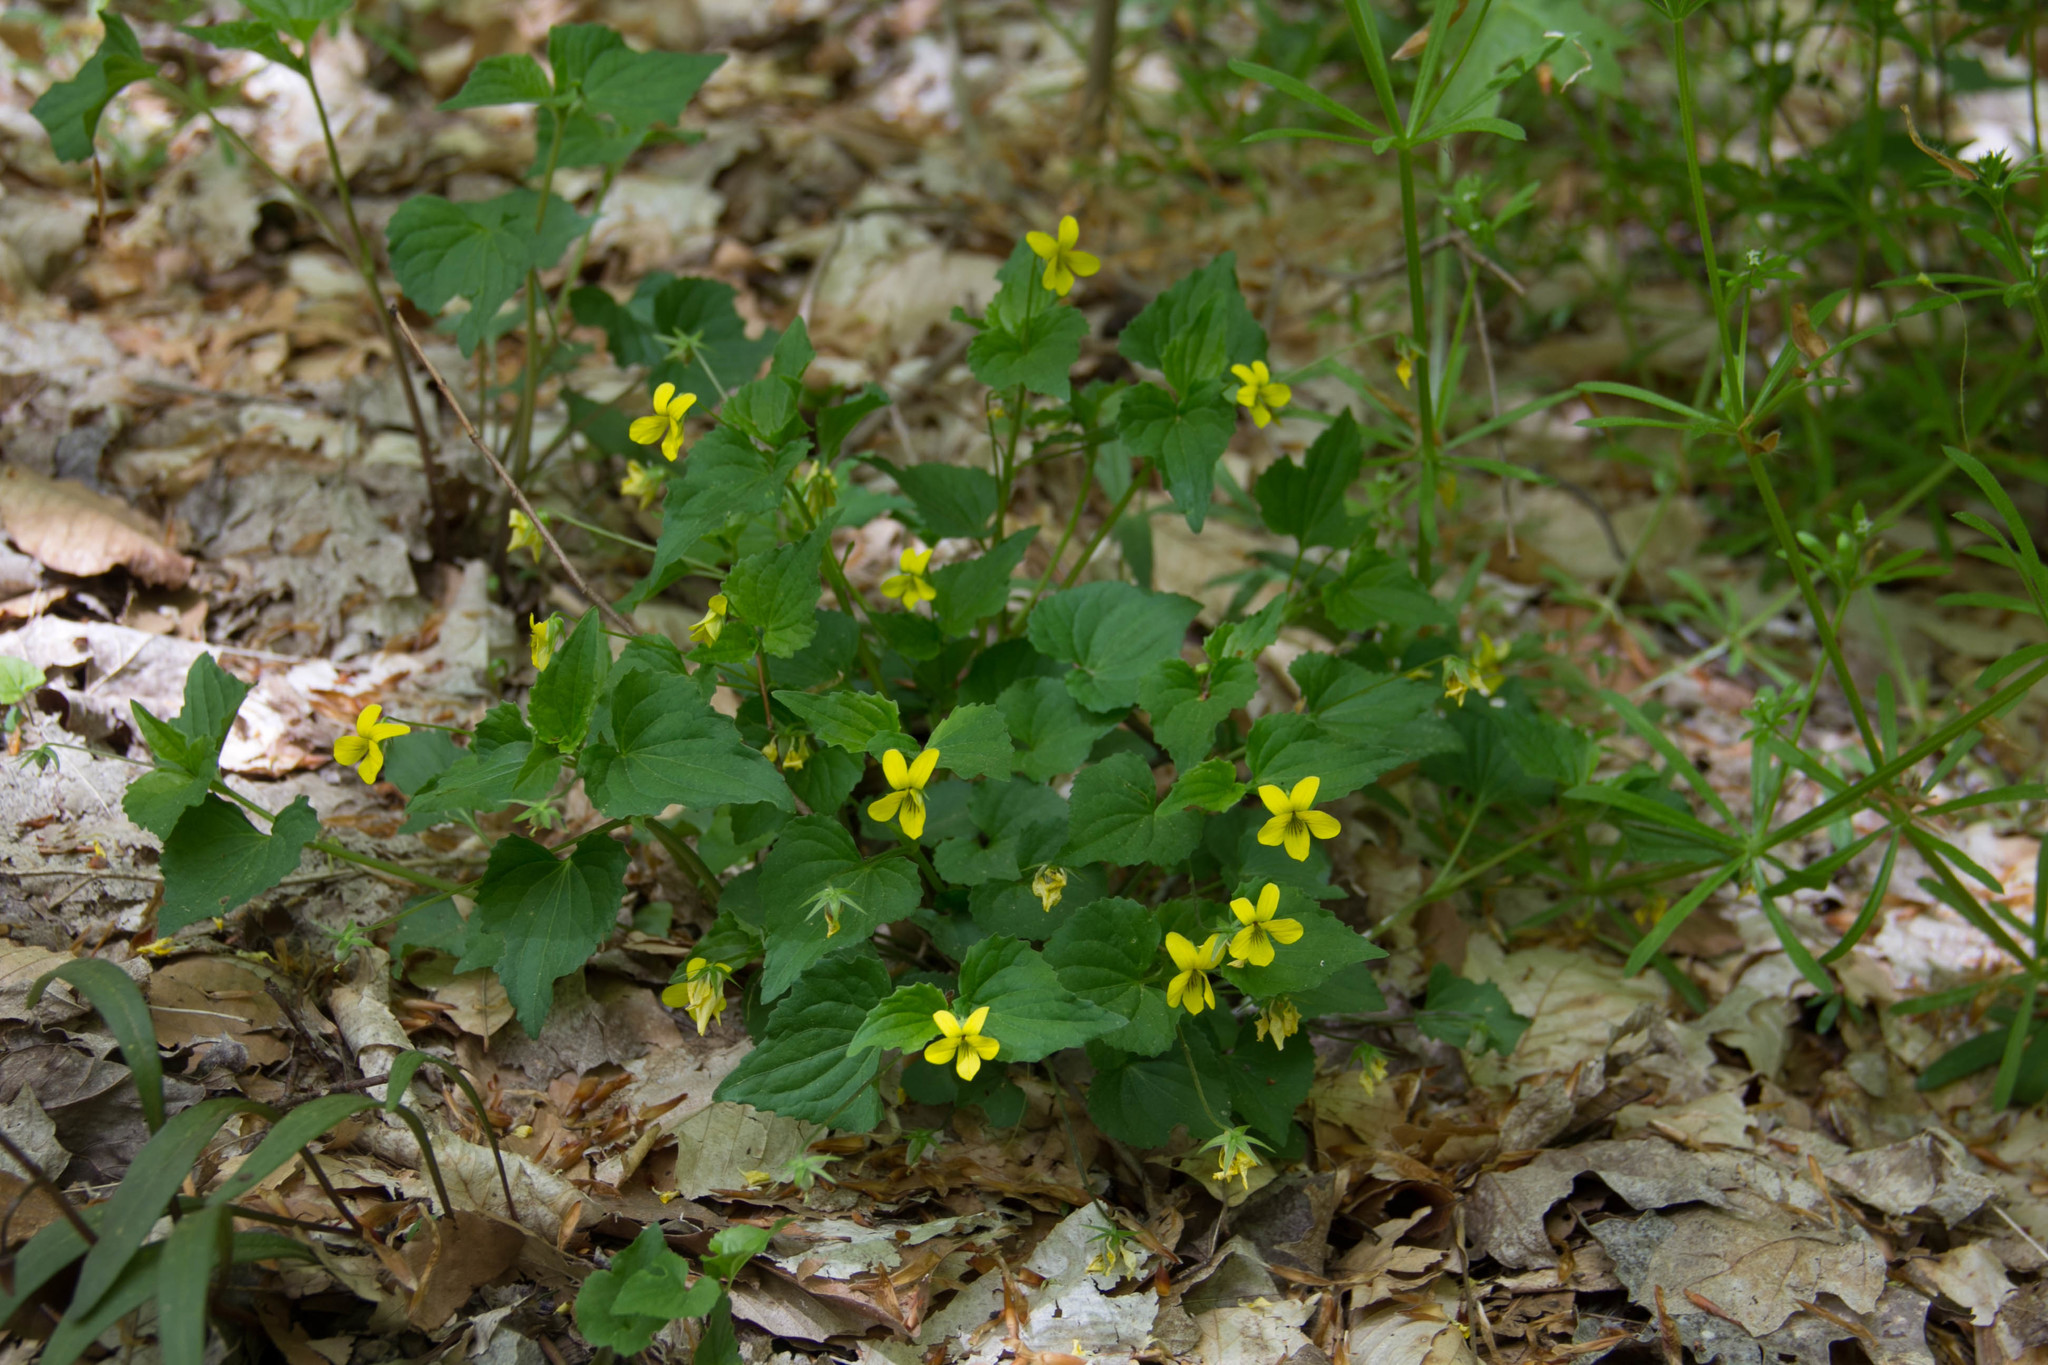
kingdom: Plantae
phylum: Tracheophyta
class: Magnoliopsida
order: Malpighiales
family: Violaceae
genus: Viola
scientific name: Viola eriocarpa
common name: Smooth yellow violet
